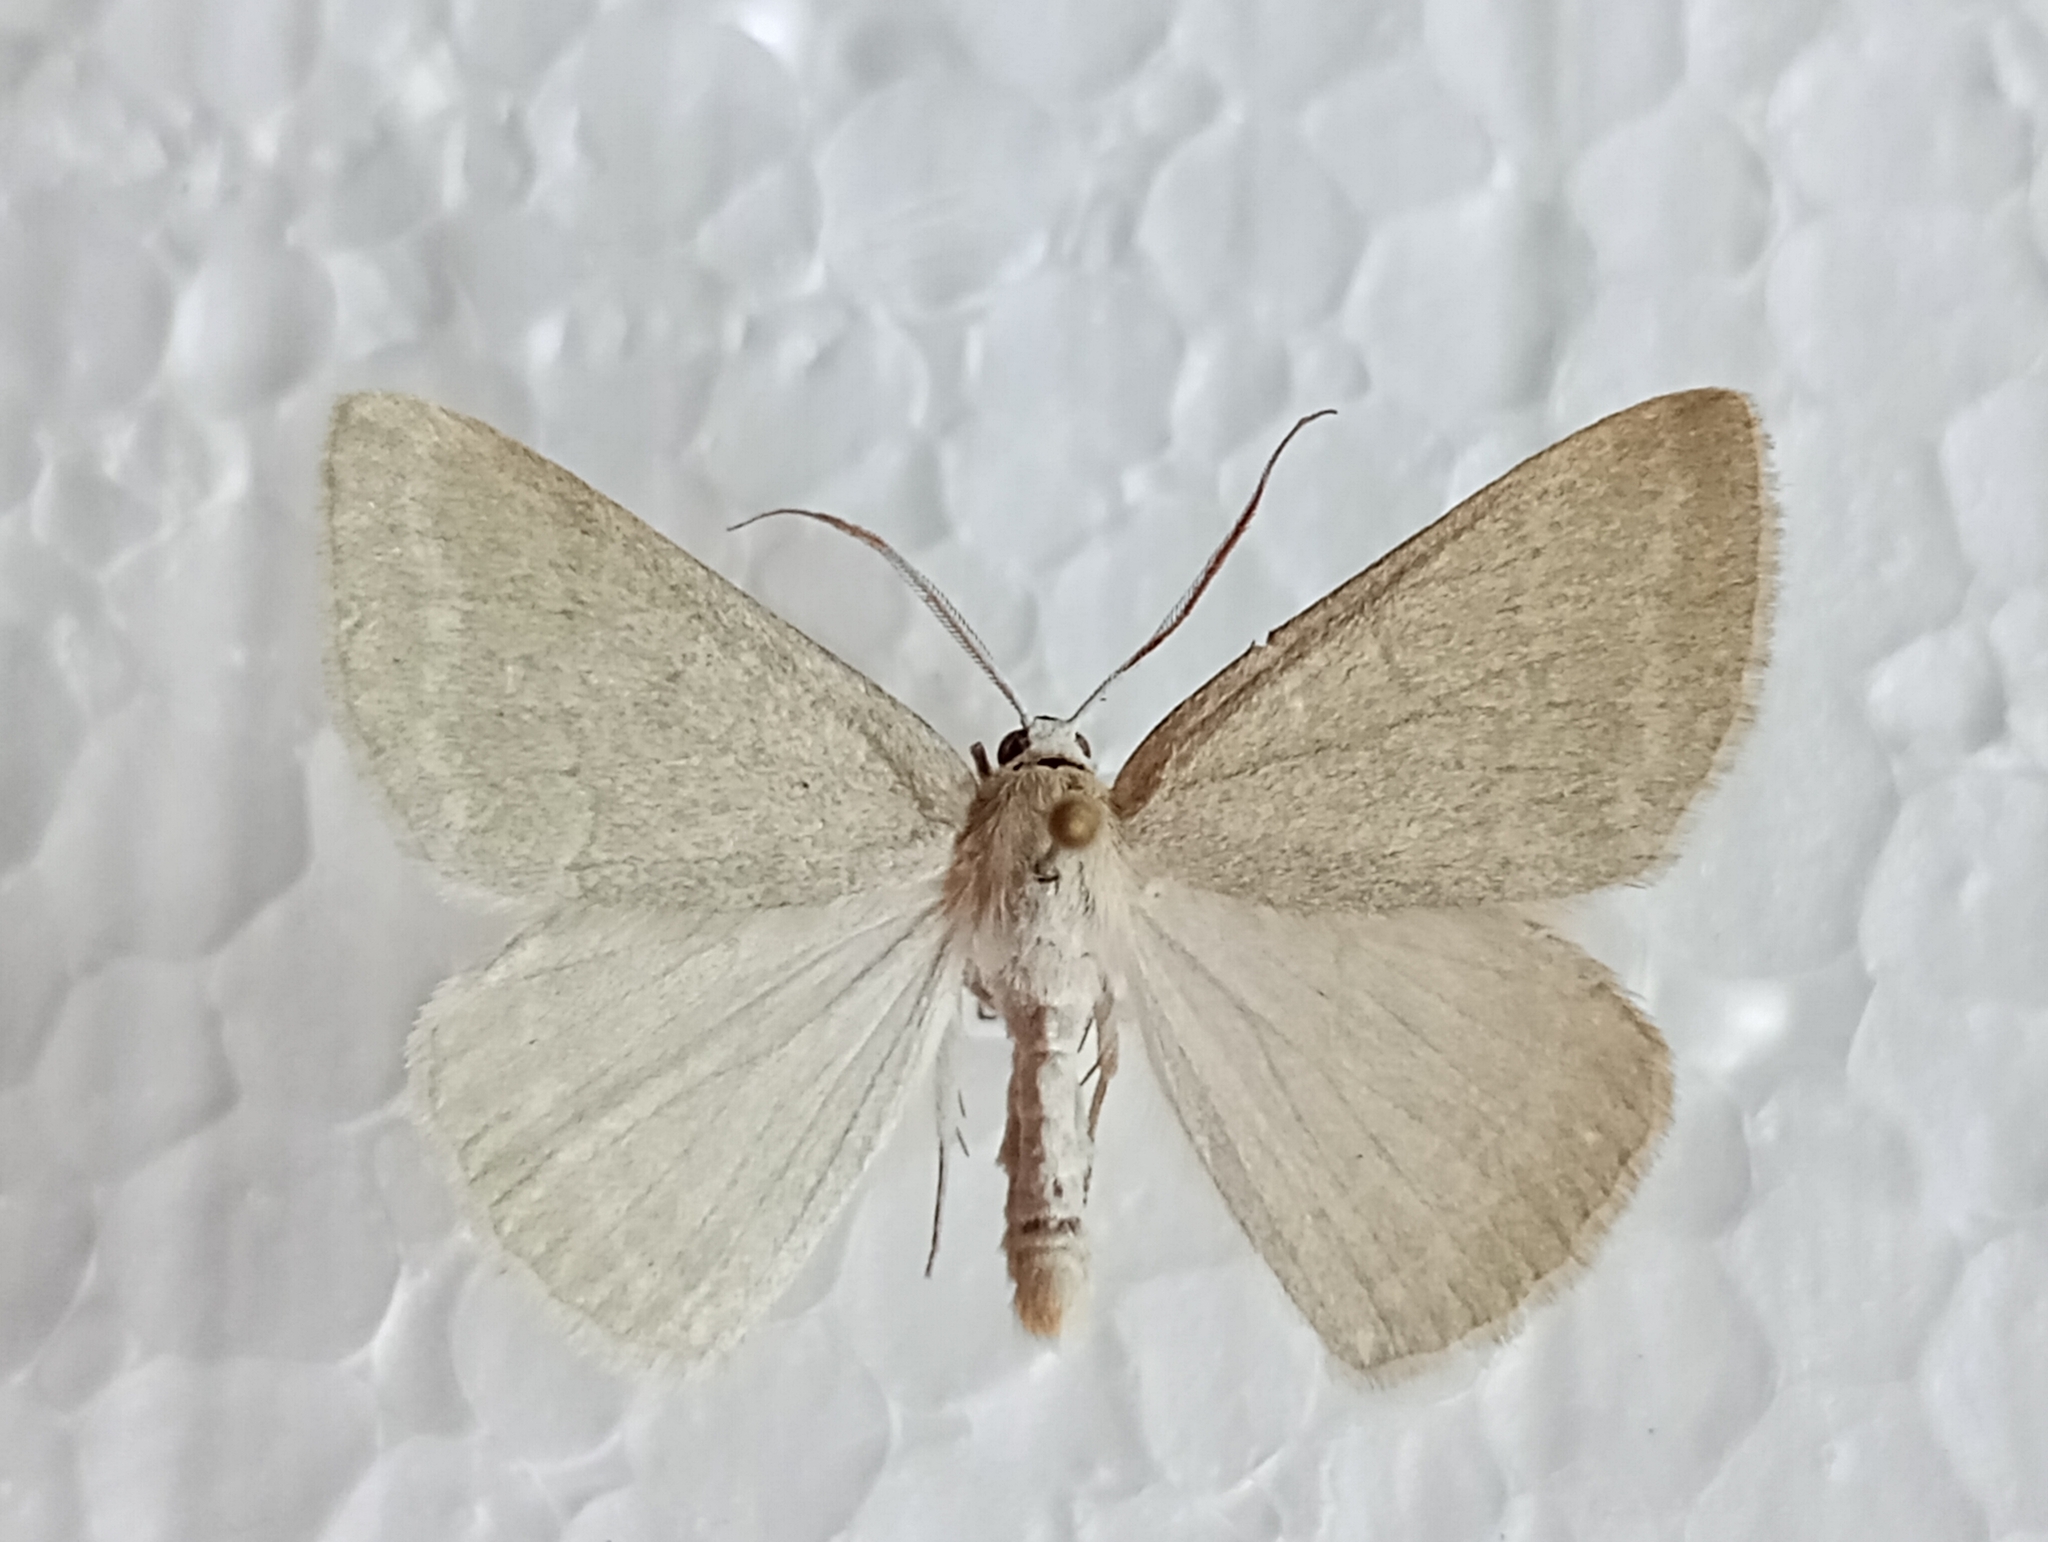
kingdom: Animalia
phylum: Arthropoda
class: Insecta
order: Lepidoptera
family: Geometridae
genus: Pseudoterpna
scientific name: Pseudoterpna pruinata
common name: Grass emerald
